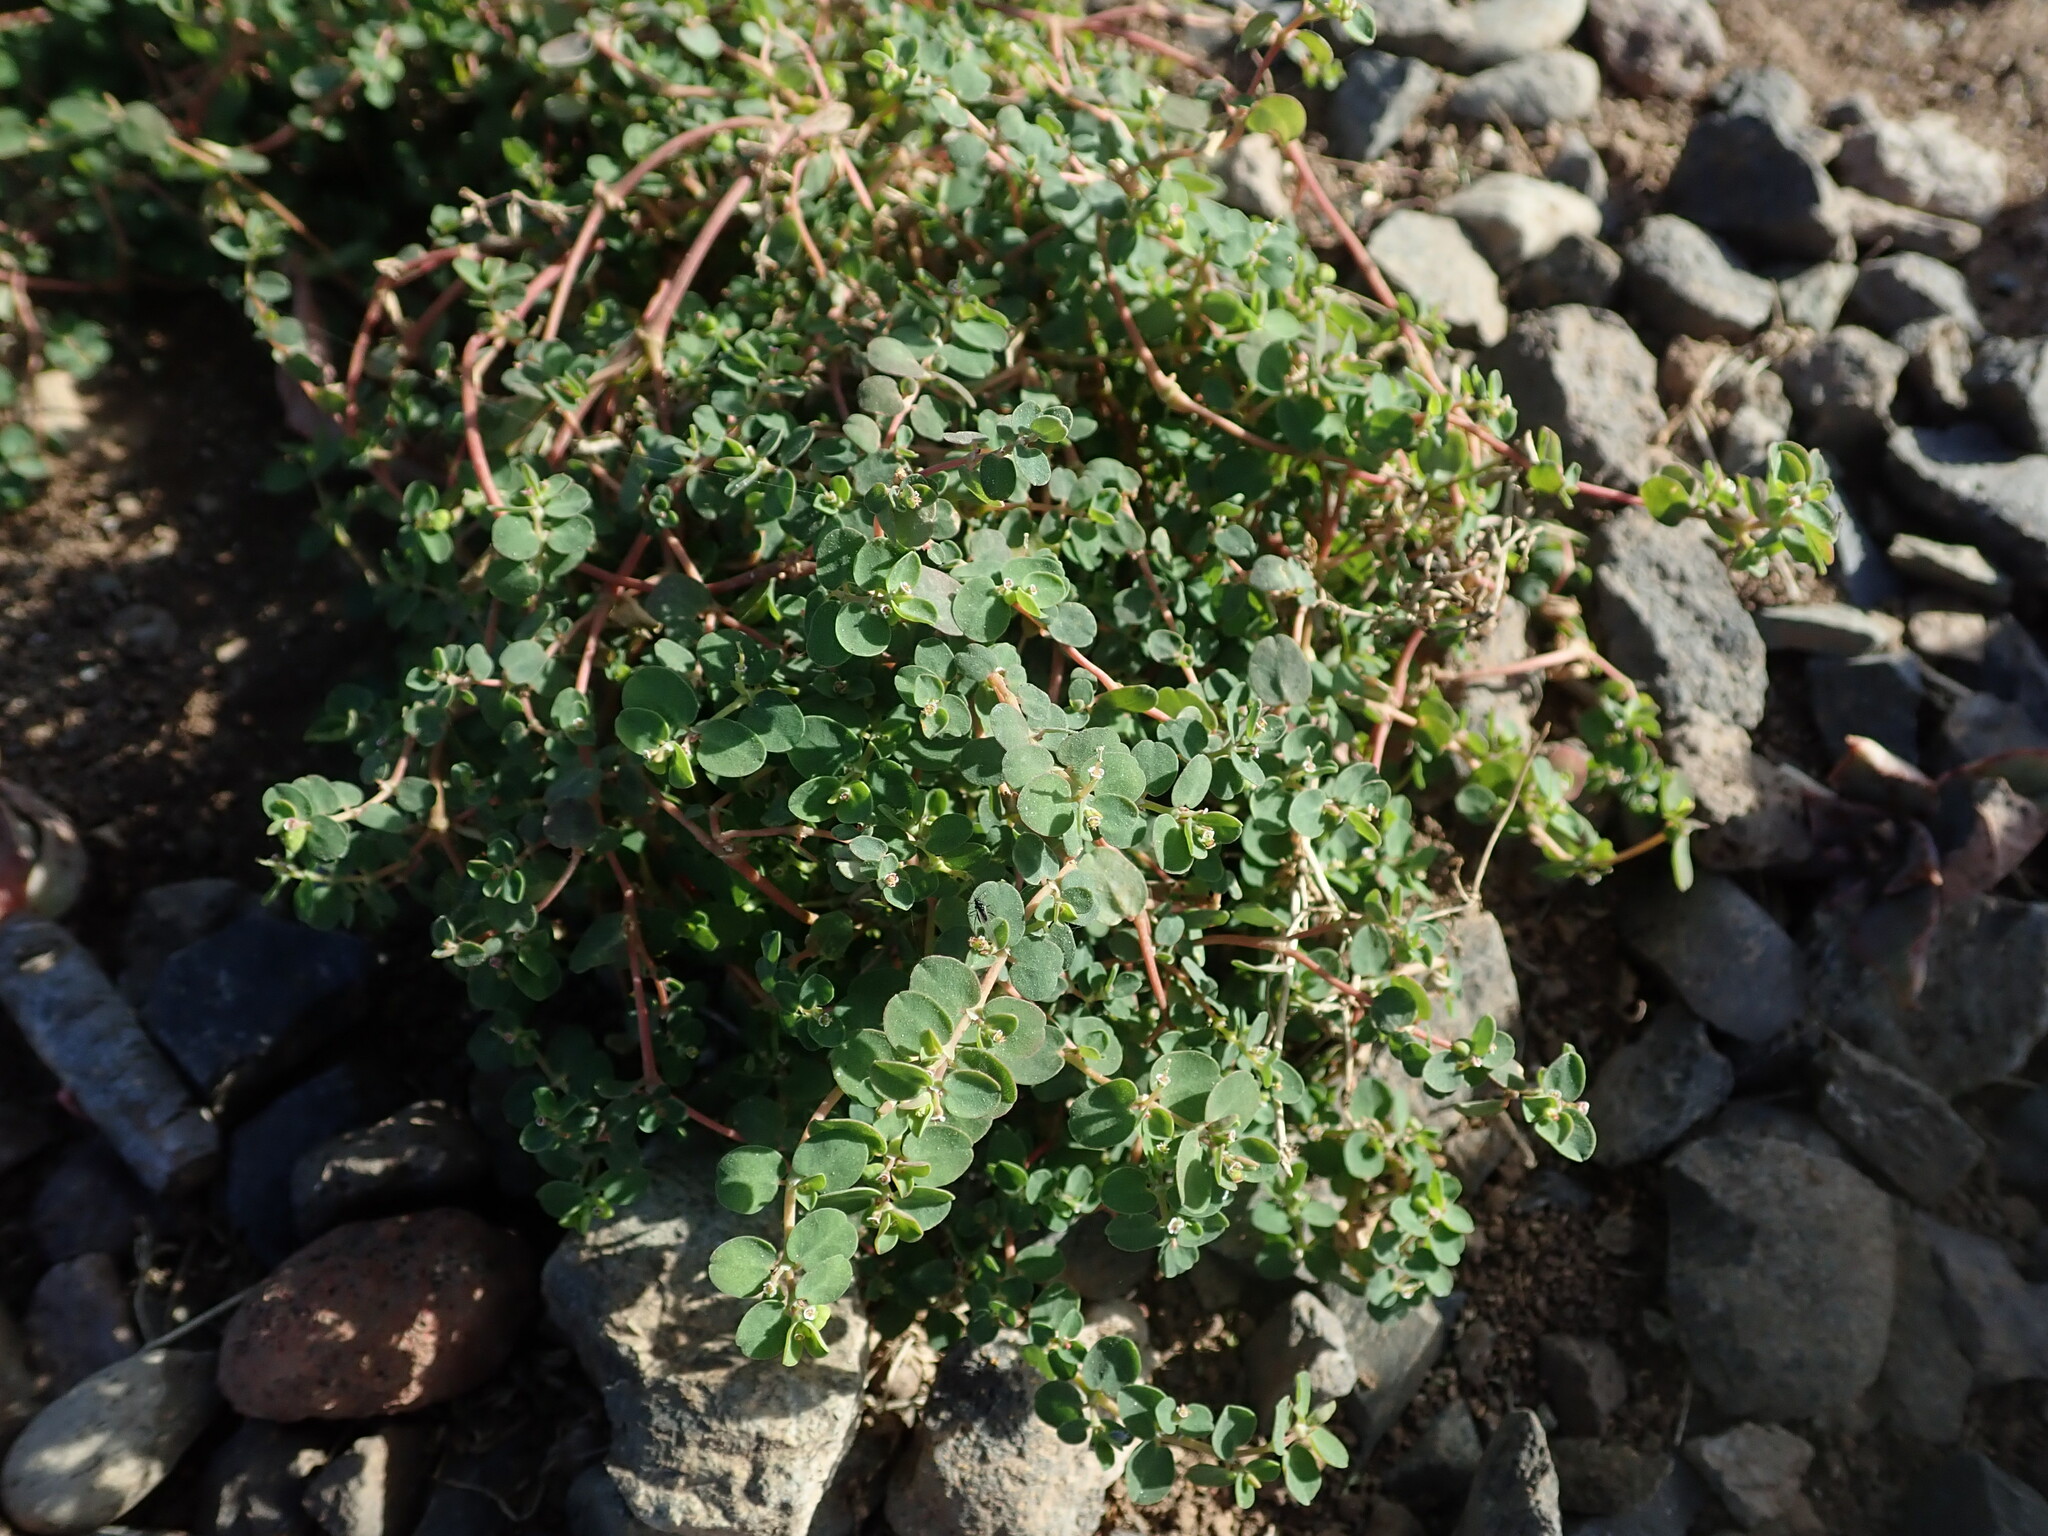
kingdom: Plantae
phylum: Tracheophyta
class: Magnoliopsida
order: Malpighiales
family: Euphorbiaceae
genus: Euphorbia
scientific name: Euphorbia serpens
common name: Matted sandmat
